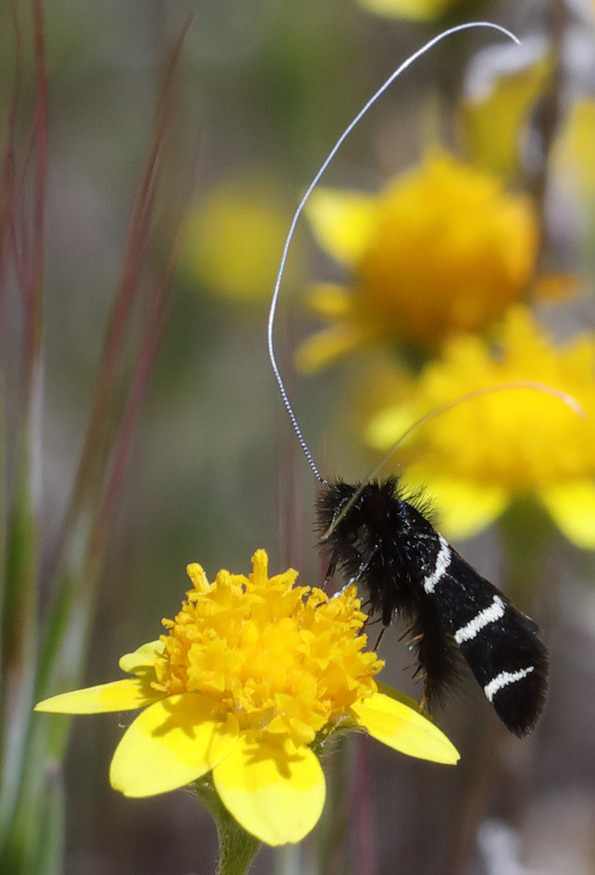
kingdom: Animalia
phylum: Arthropoda
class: Insecta
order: Lepidoptera
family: Adelidae
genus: Adela
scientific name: Adela trigrapha
